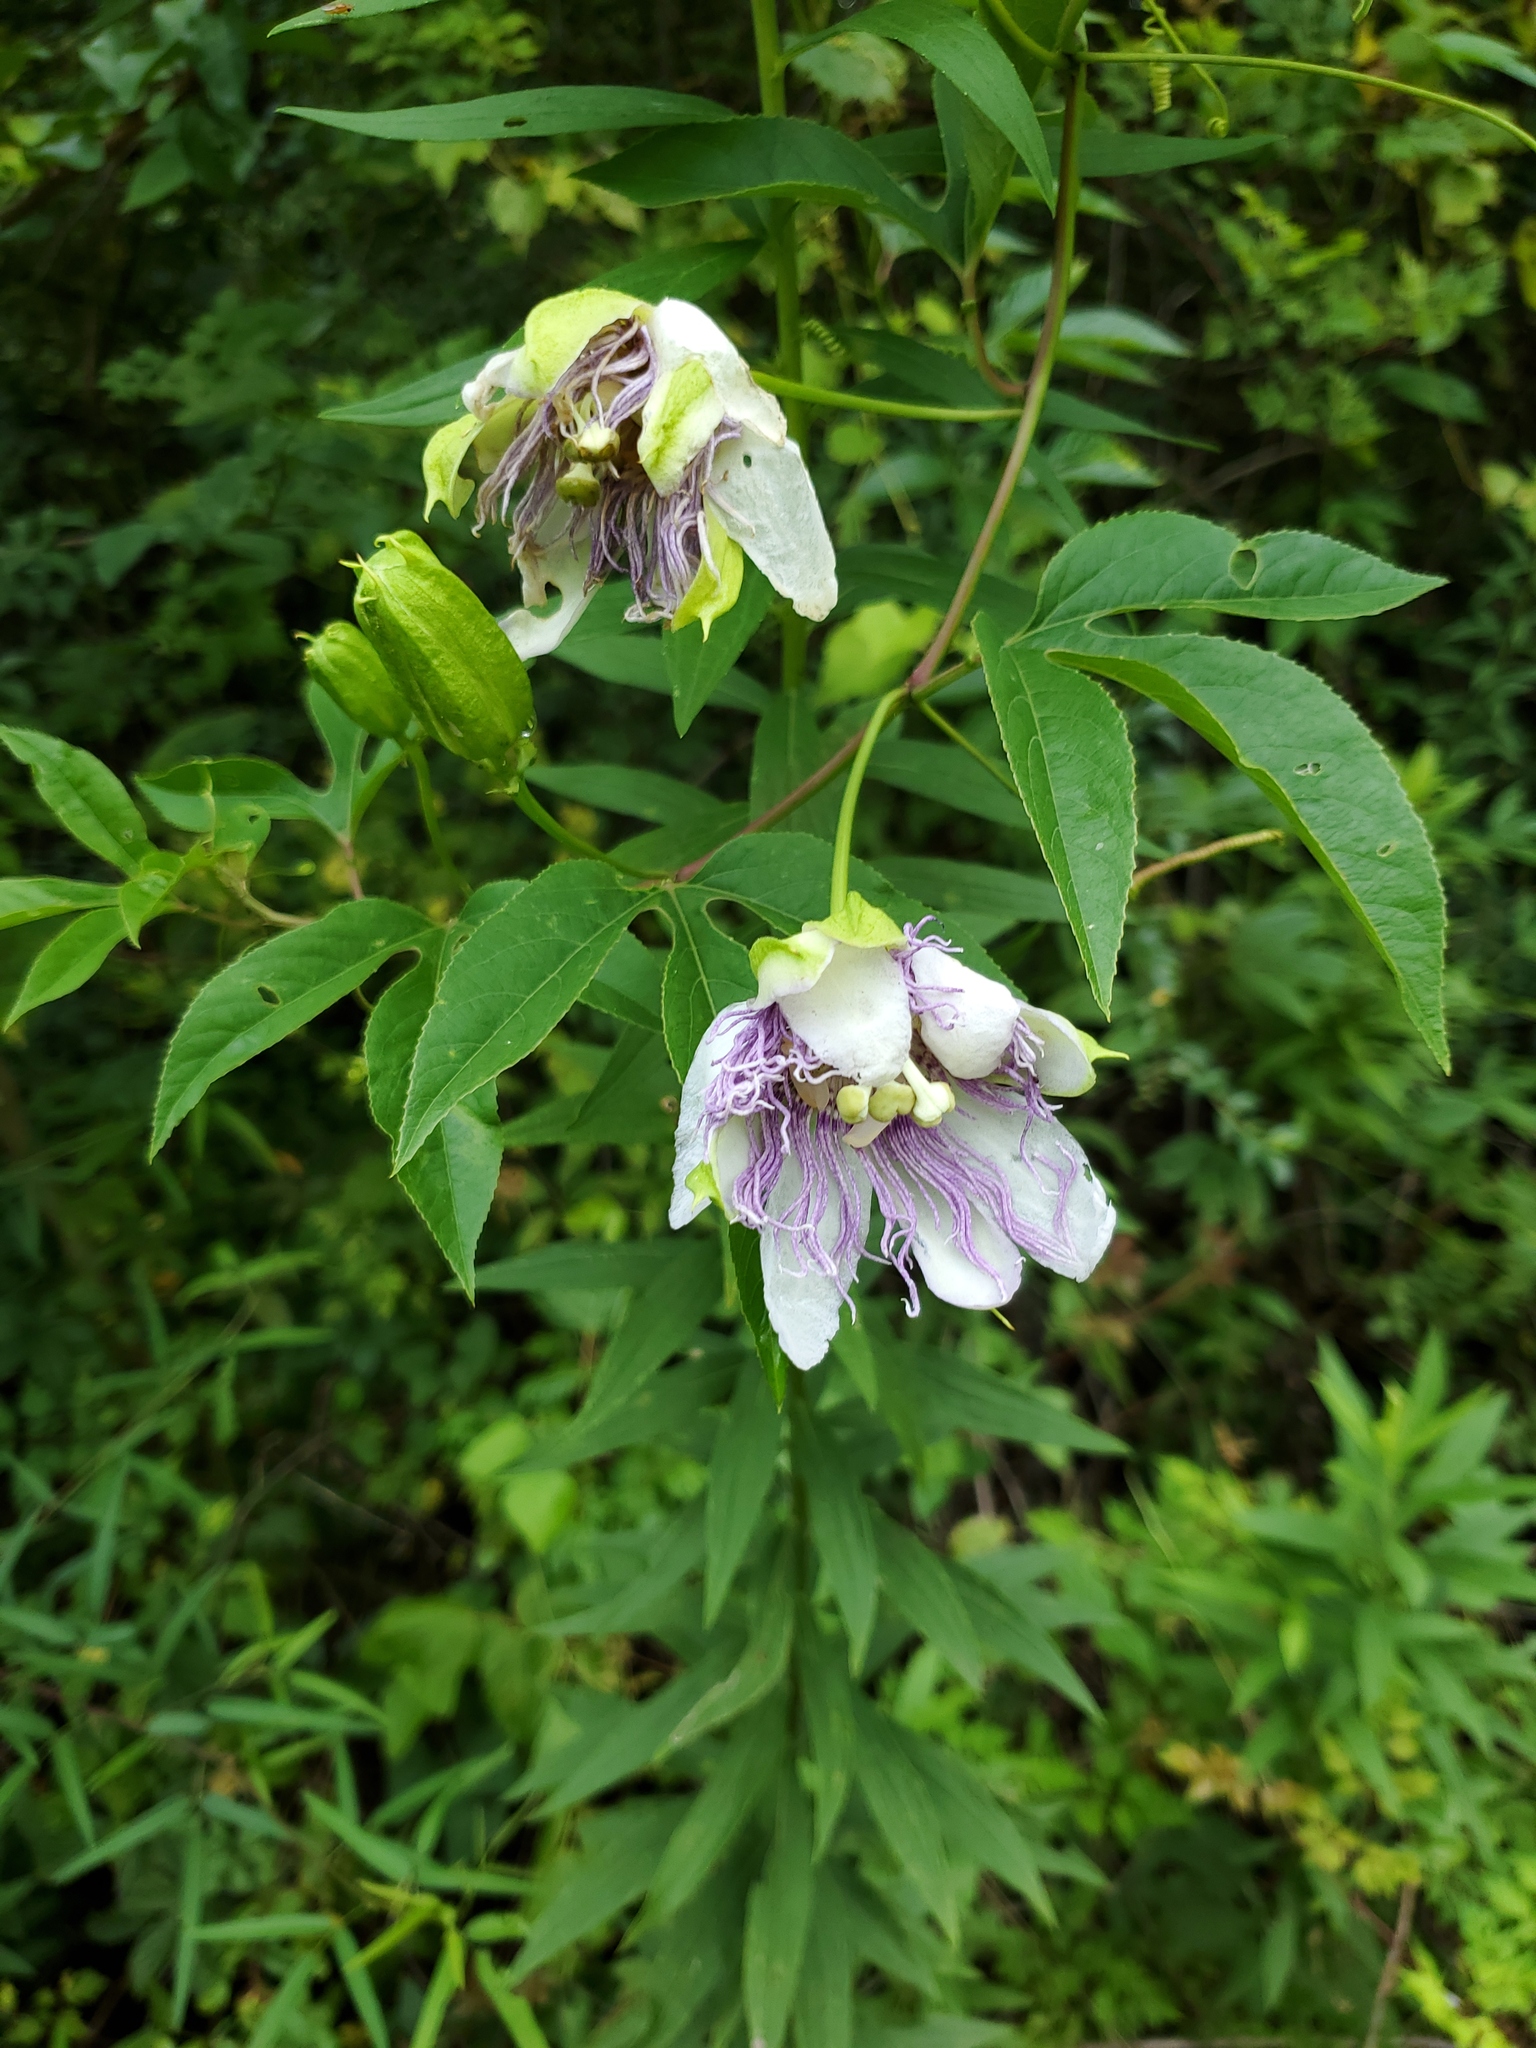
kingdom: Plantae
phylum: Tracheophyta
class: Magnoliopsida
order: Malpighiales
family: Passifloraceae
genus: Passiflora
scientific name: Passiflora incarnata
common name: Apricot-vine
